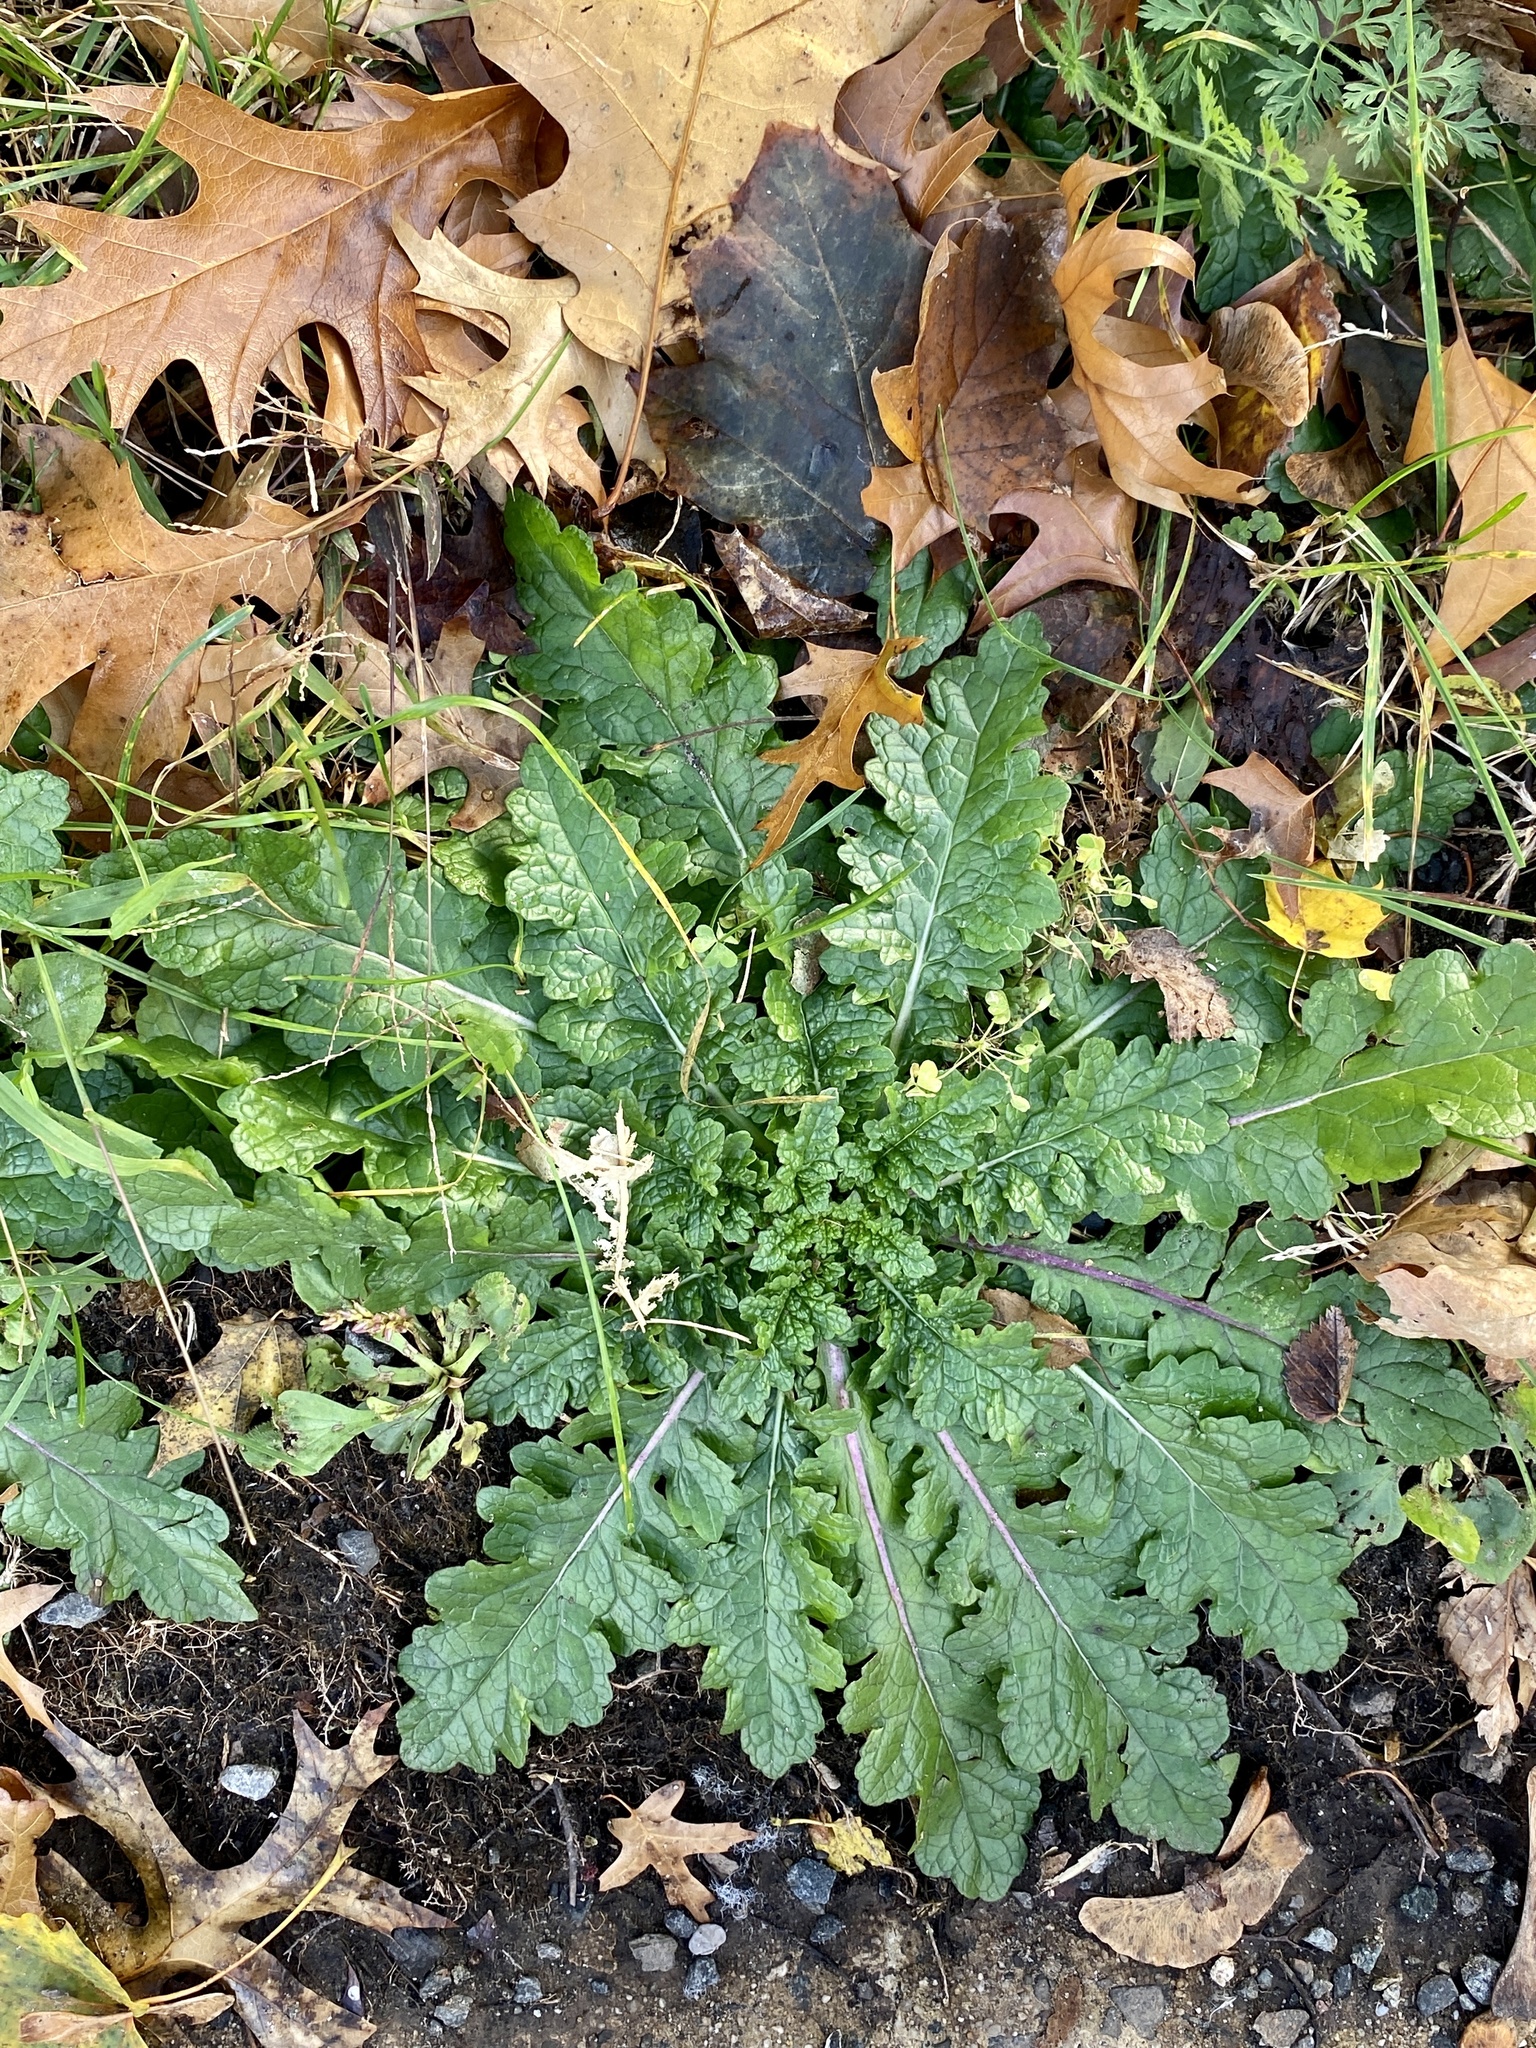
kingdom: Plantae
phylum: Tracheophyta
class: Magnoliopsida
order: Lamiales
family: Scrophulariaceae
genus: Verbascum
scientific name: Verbascum blattaria
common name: Moth mullein
